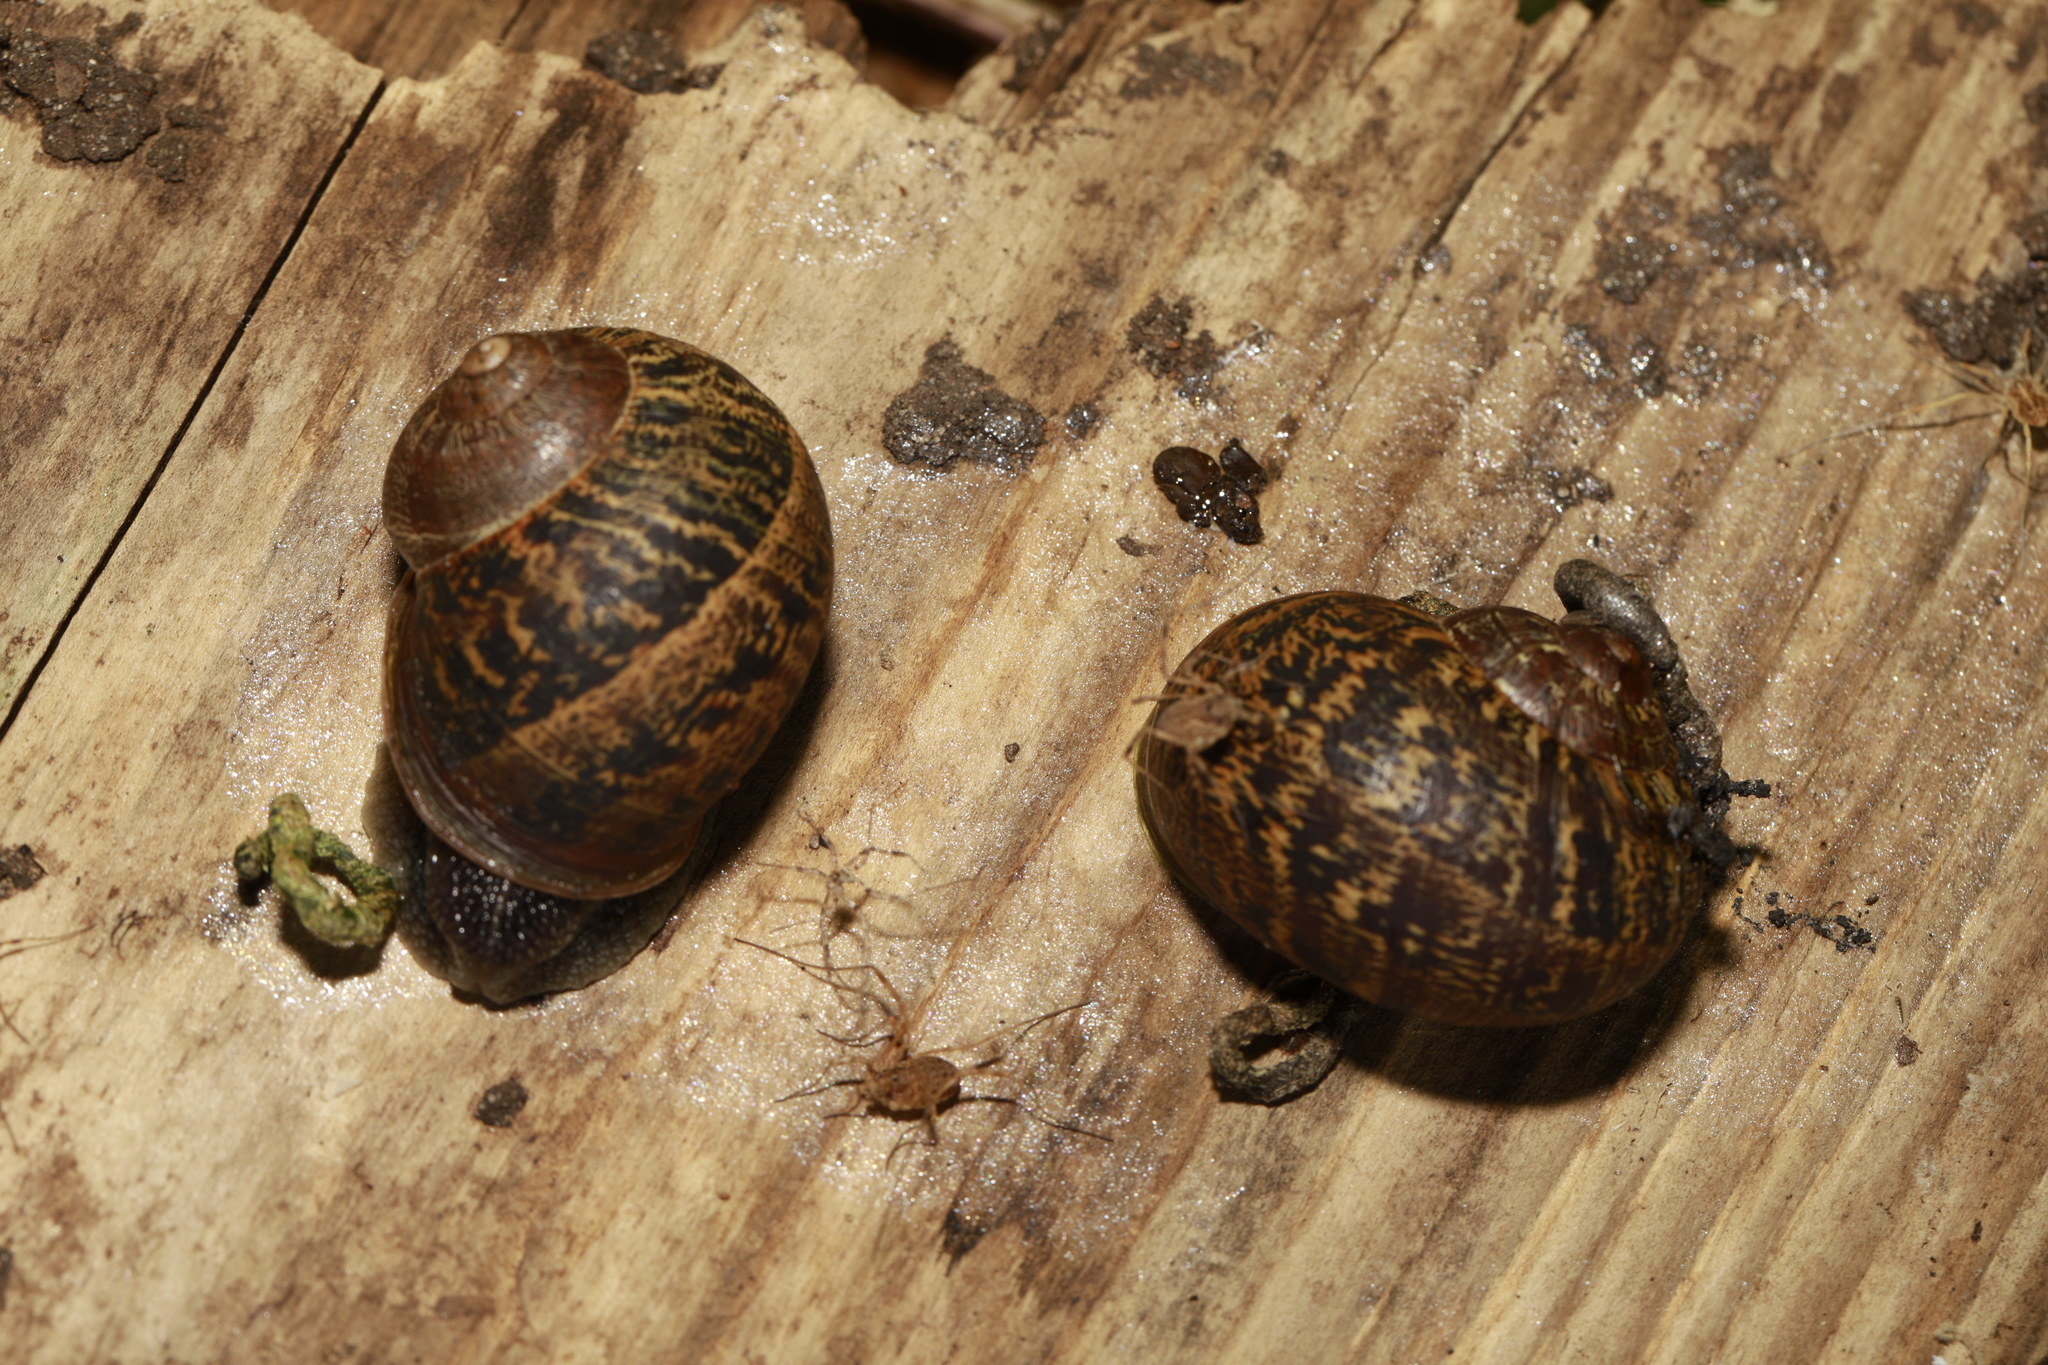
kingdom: Animalia
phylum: Mollusca
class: Gastropoda
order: Stylommatophora
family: Helicidae
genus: Cornu
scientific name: Cornu aspersum
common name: Brown garden snail
